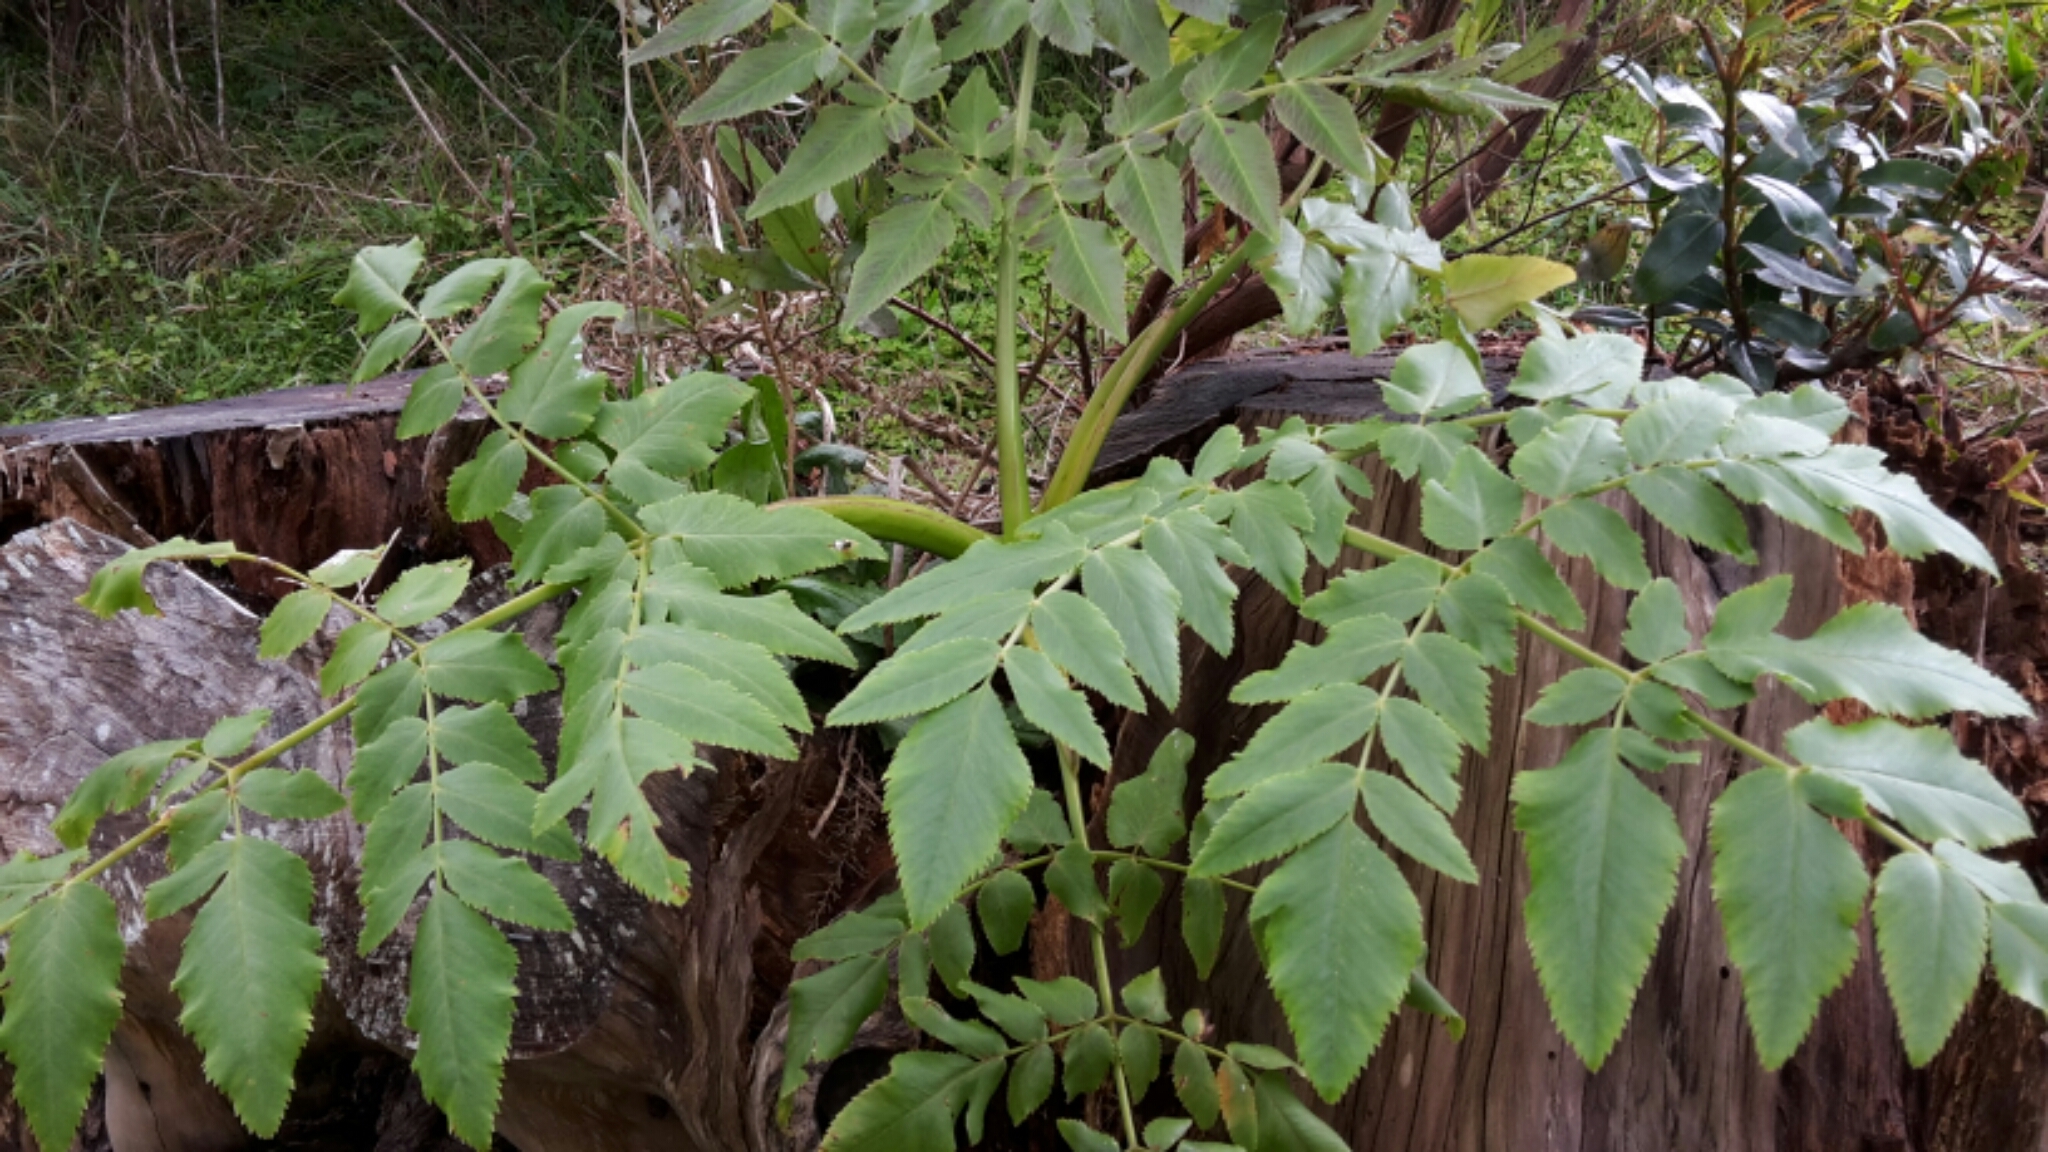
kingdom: Plantae
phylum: Tracheophyta
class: Magnoliopsida
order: Apiales
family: Apiaceae
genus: Daucus
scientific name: Daucus decipiens
